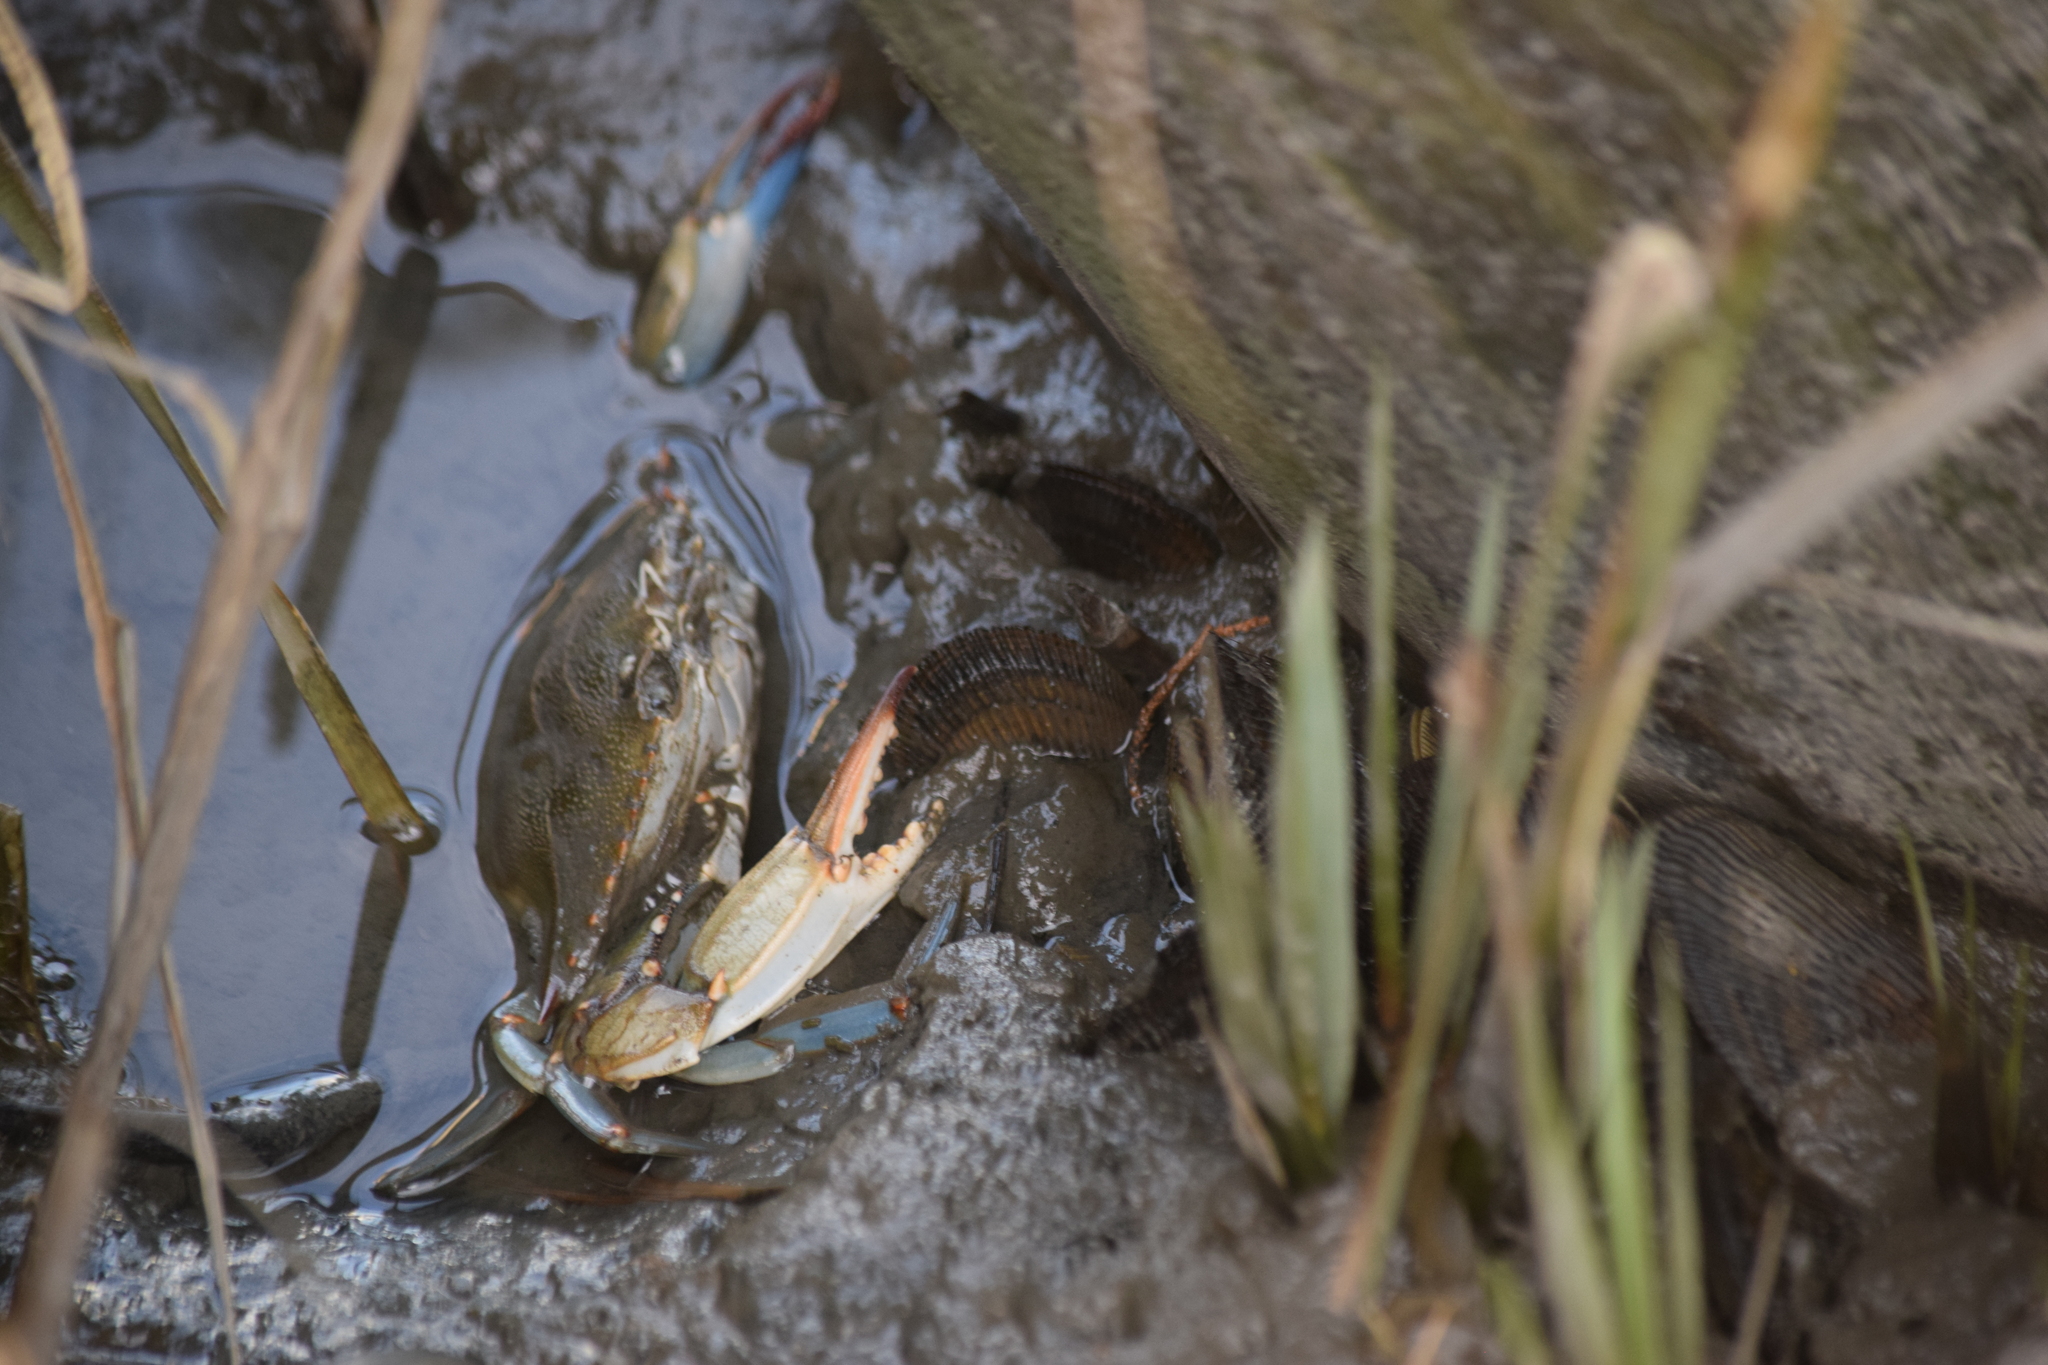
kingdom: Animalia
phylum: Arthropoda
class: Malacostraca
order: Decapoda
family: Portunidae
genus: Callinectes
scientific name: Callinectes sapidus
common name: Blue crab
